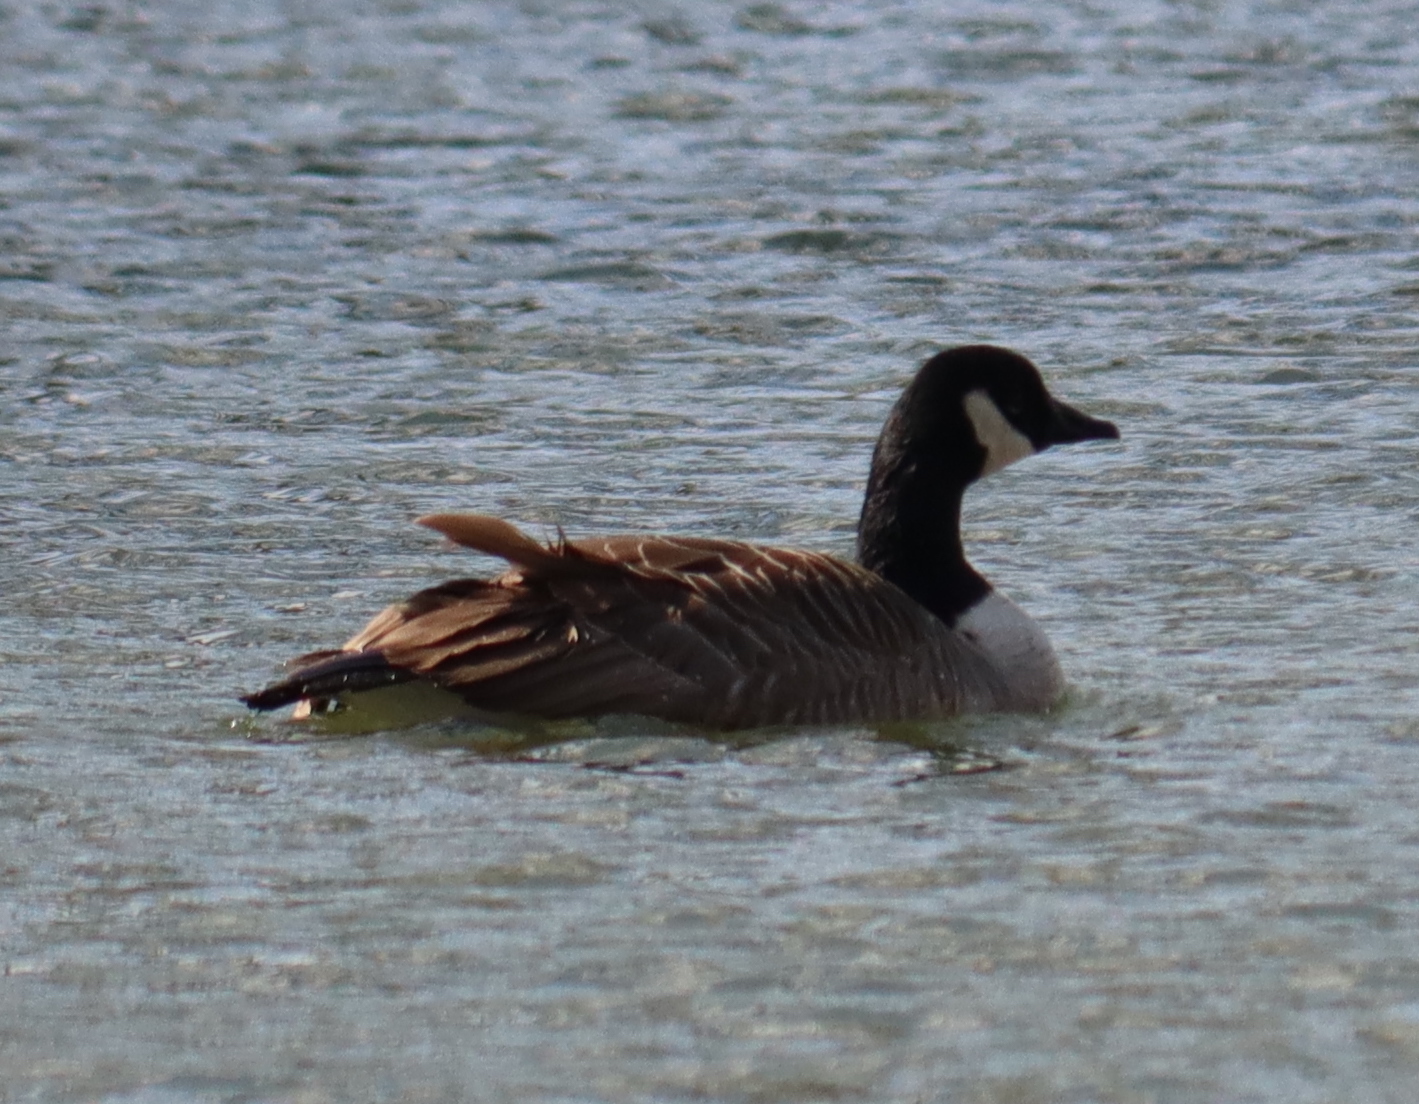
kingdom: Animalia
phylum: Chordata
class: Aves
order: Anseriformes
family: Anatidae
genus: Branta
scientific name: Branta canadensis
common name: Canada goose
